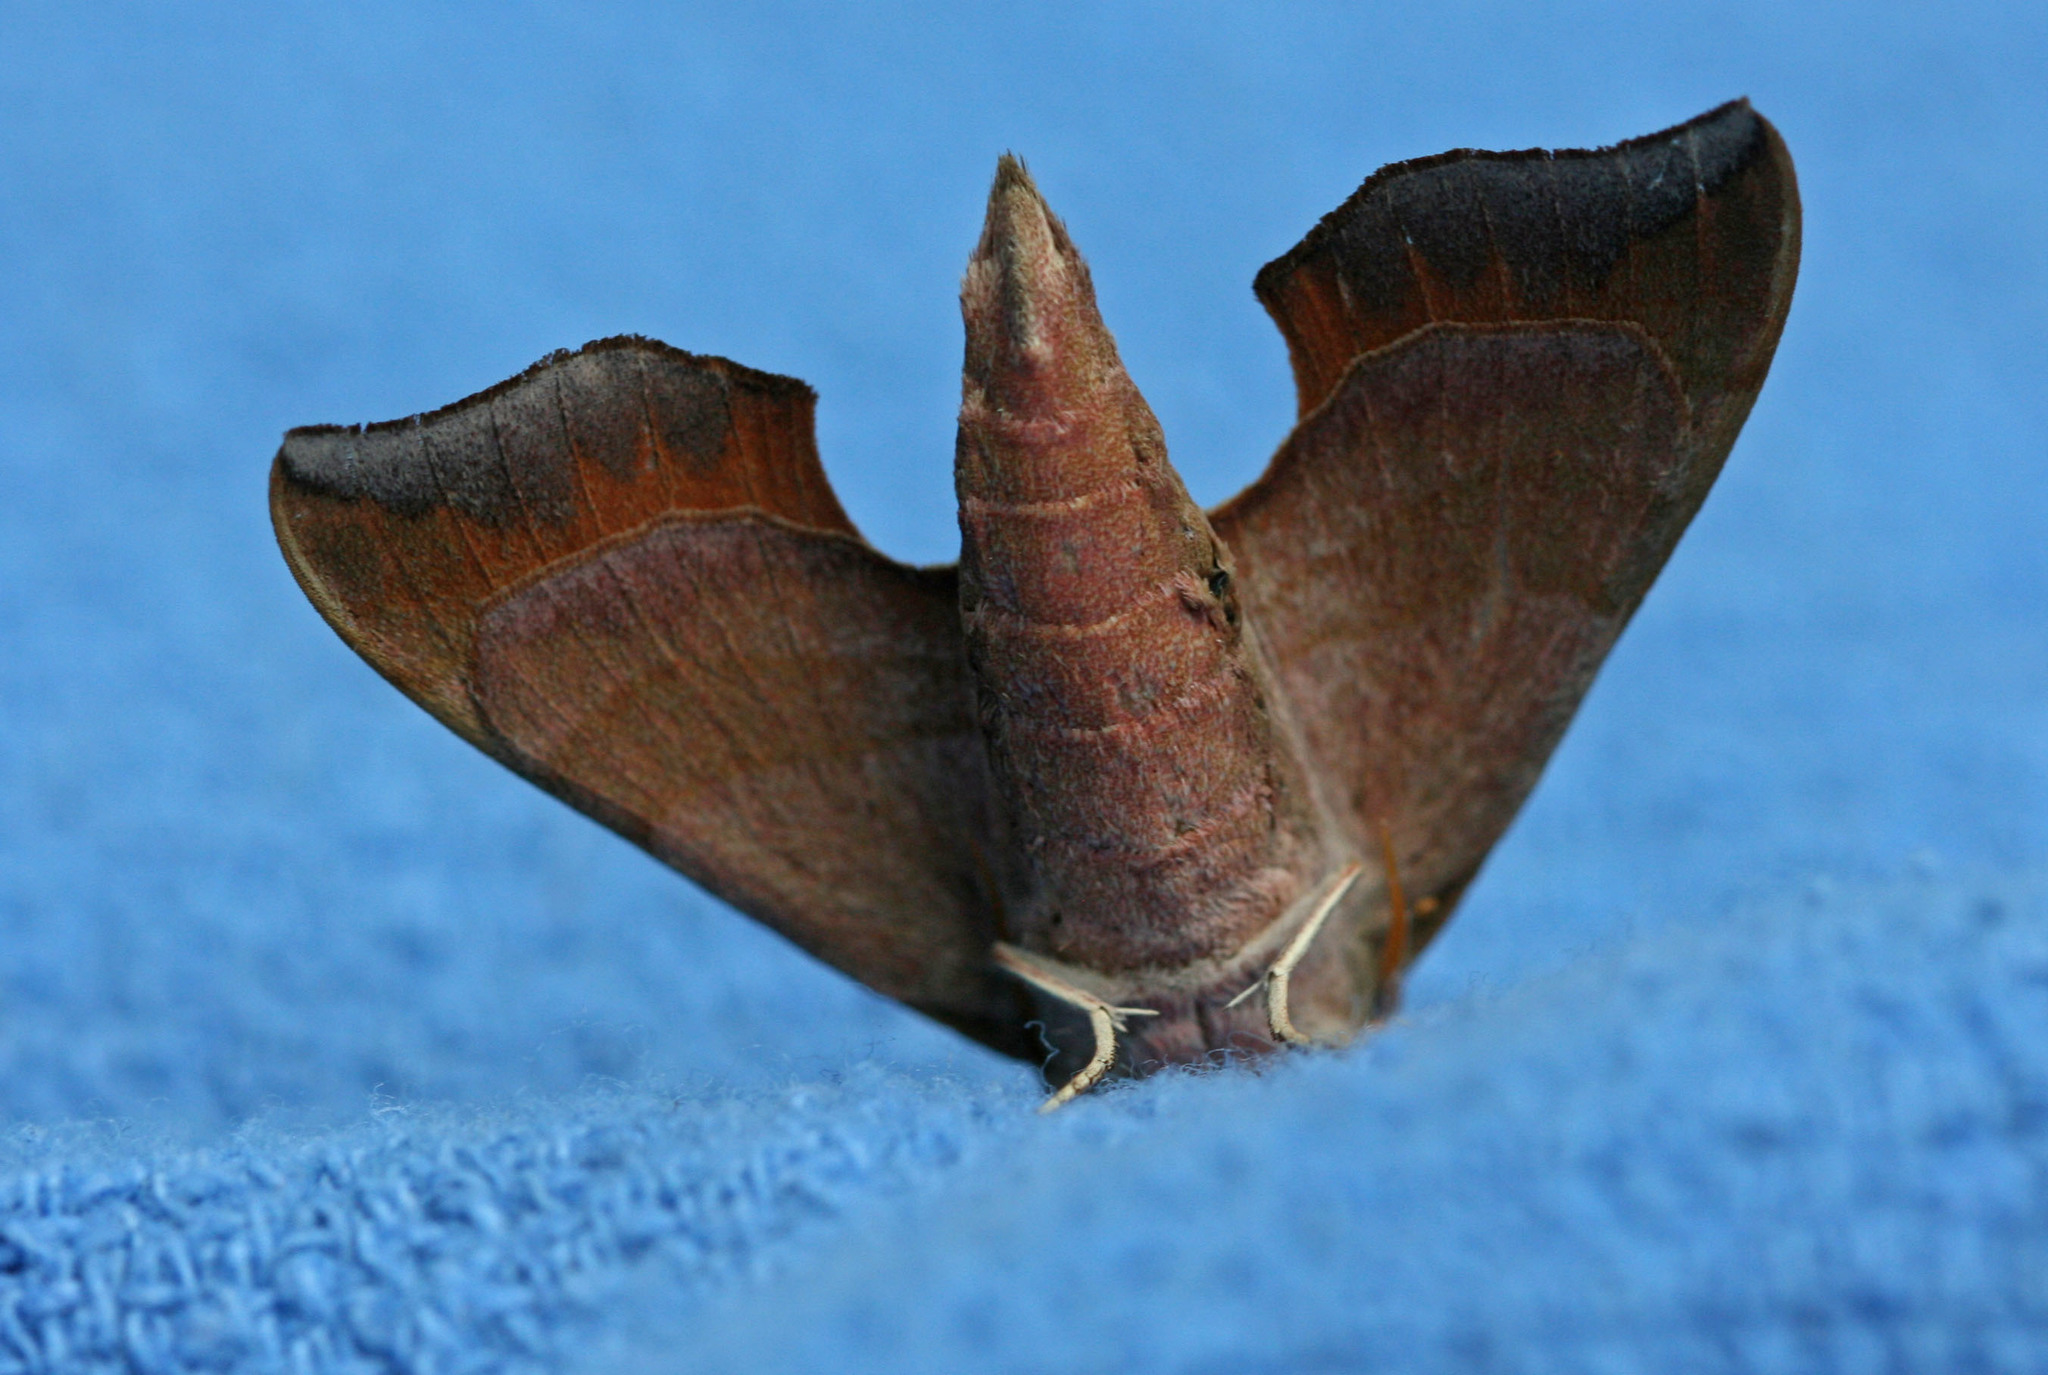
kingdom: Animalia
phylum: Arthropoda
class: Insecta
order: Lepidoptera
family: Sphingidae
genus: Darapsa
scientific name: Darapsa myron
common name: Hog sphinx
